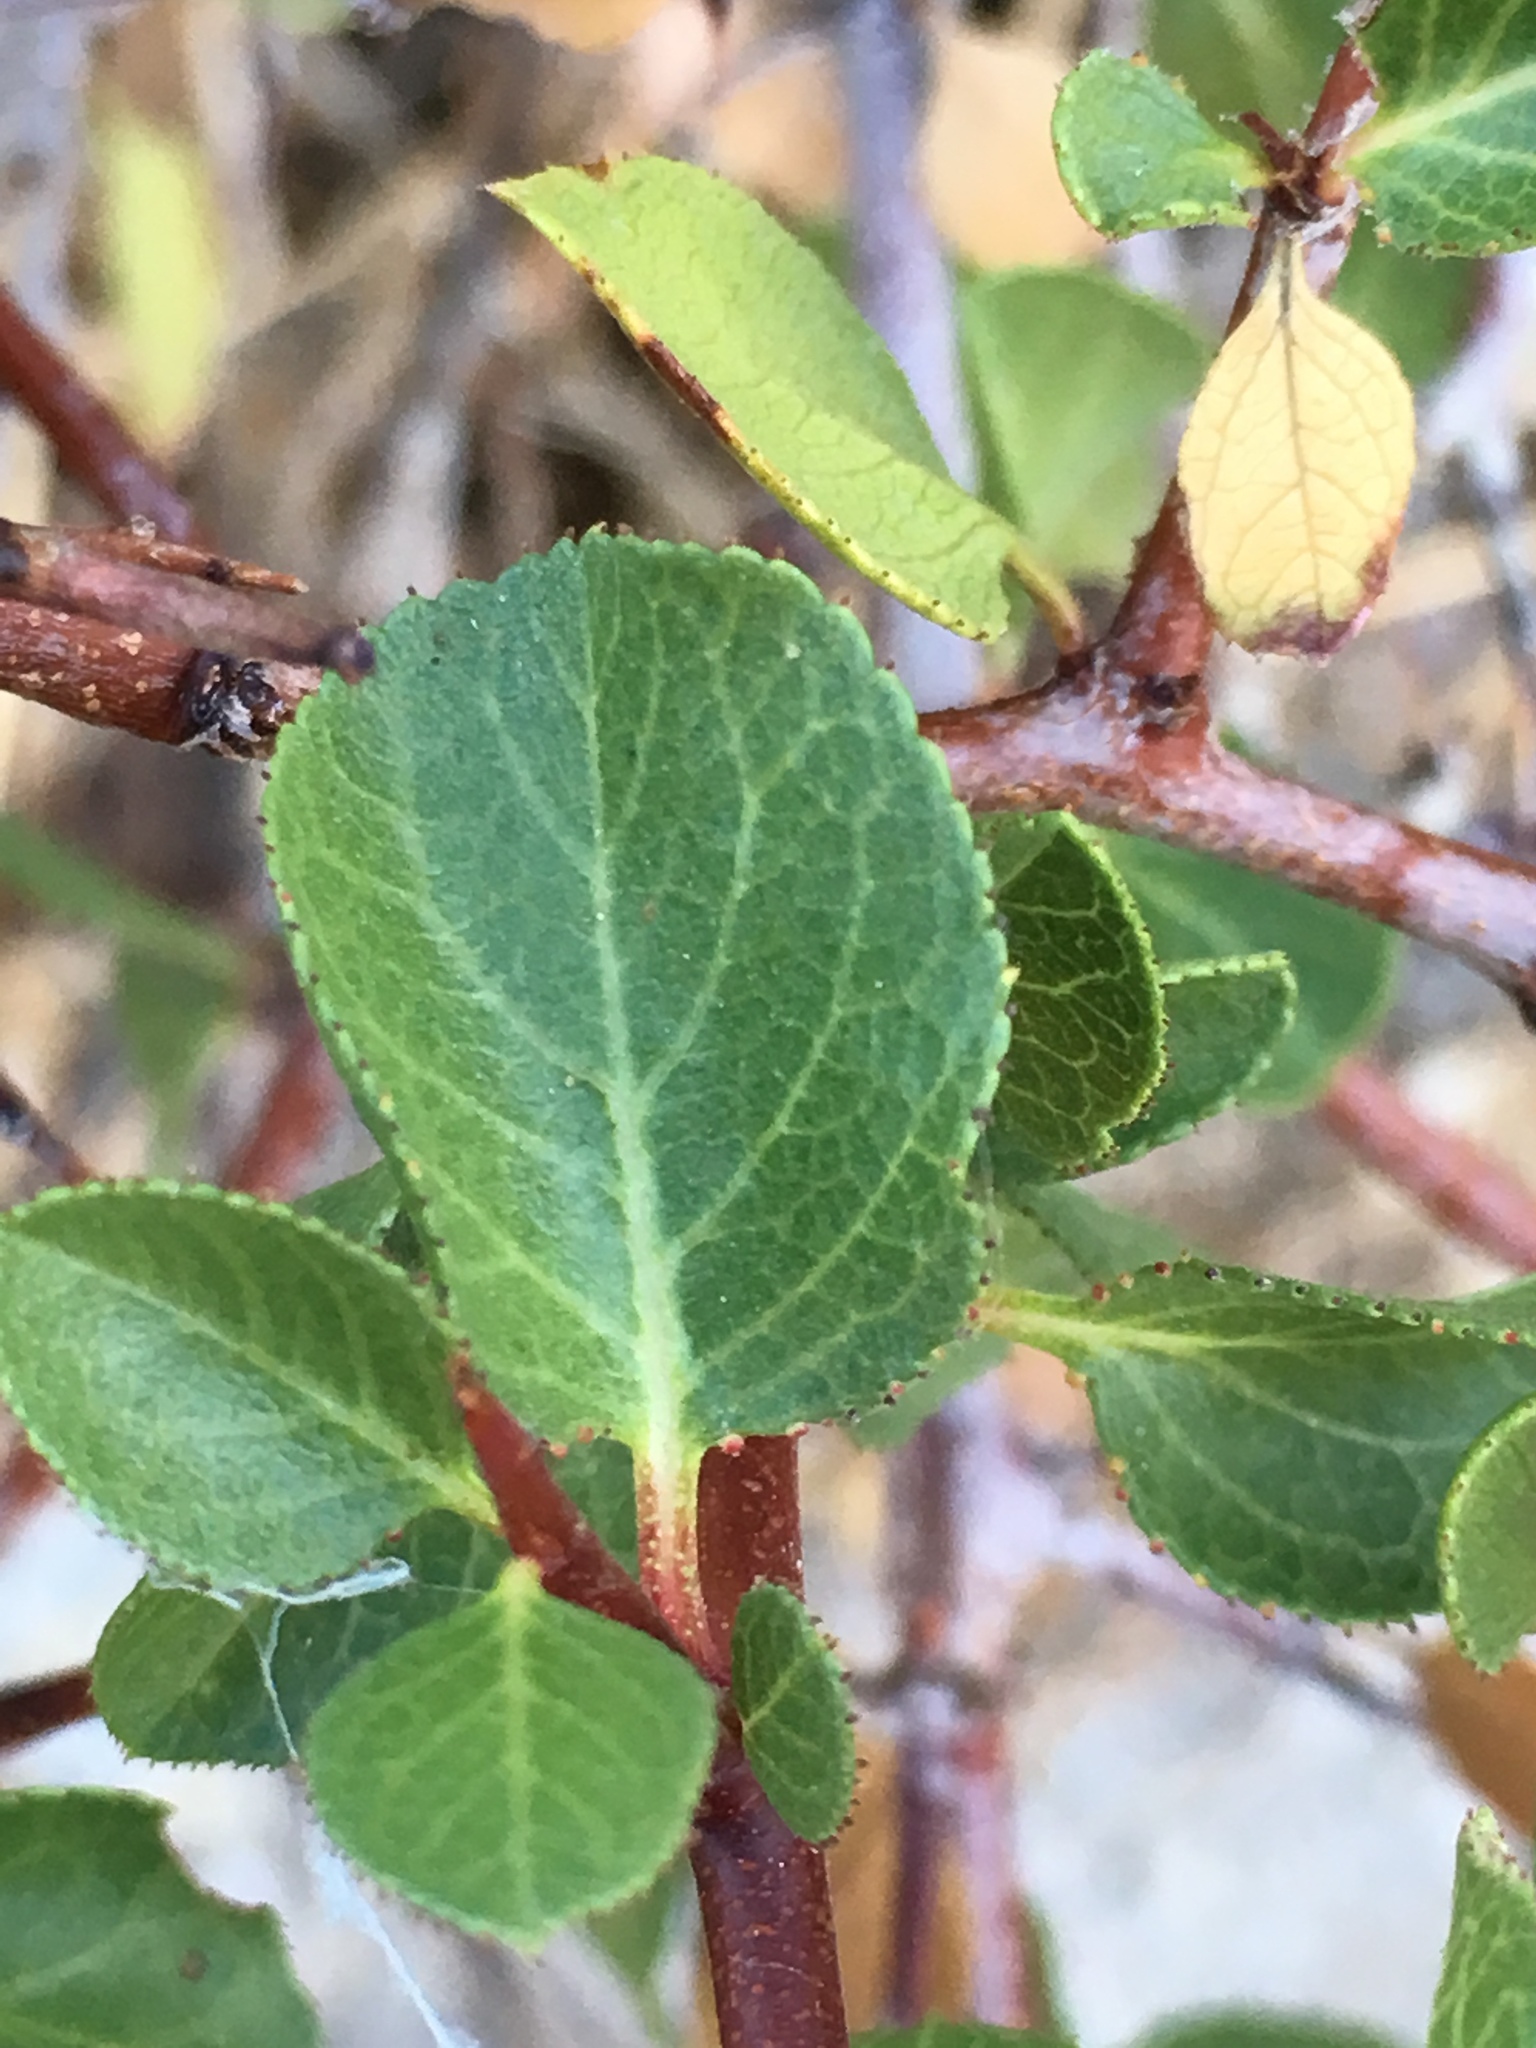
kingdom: Plantae
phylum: Tracheophyta
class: Magnoliopsida
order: Rosales
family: Rosaceae
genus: Prunus
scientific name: Prunus fremontii
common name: Desert apricot
